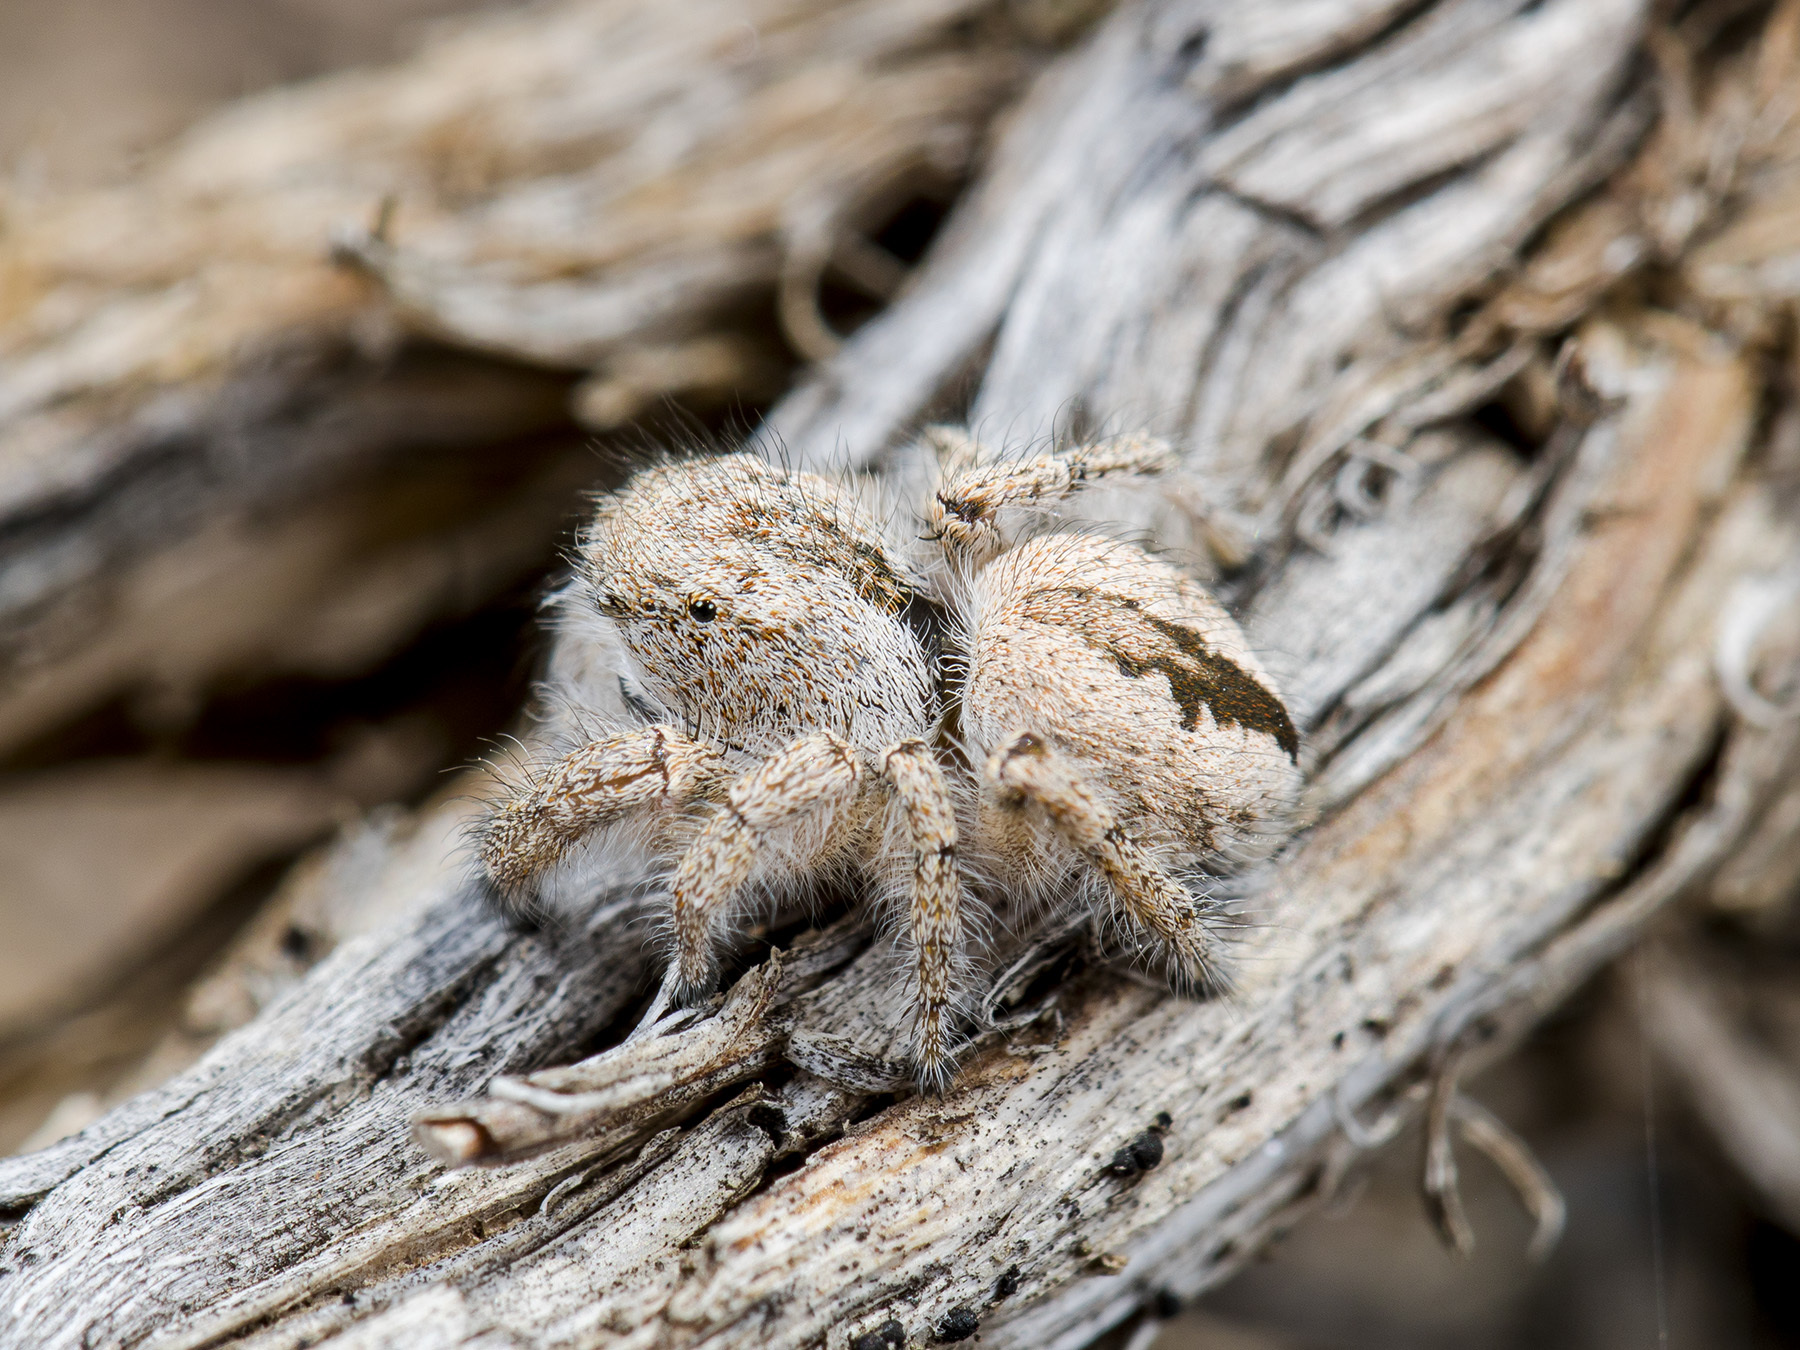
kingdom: Animalia
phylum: Arthropoda
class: Arachnida
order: Araneae
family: Salticidae
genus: Pseudomogrus
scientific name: Pseudomogrus zhilgaensis
